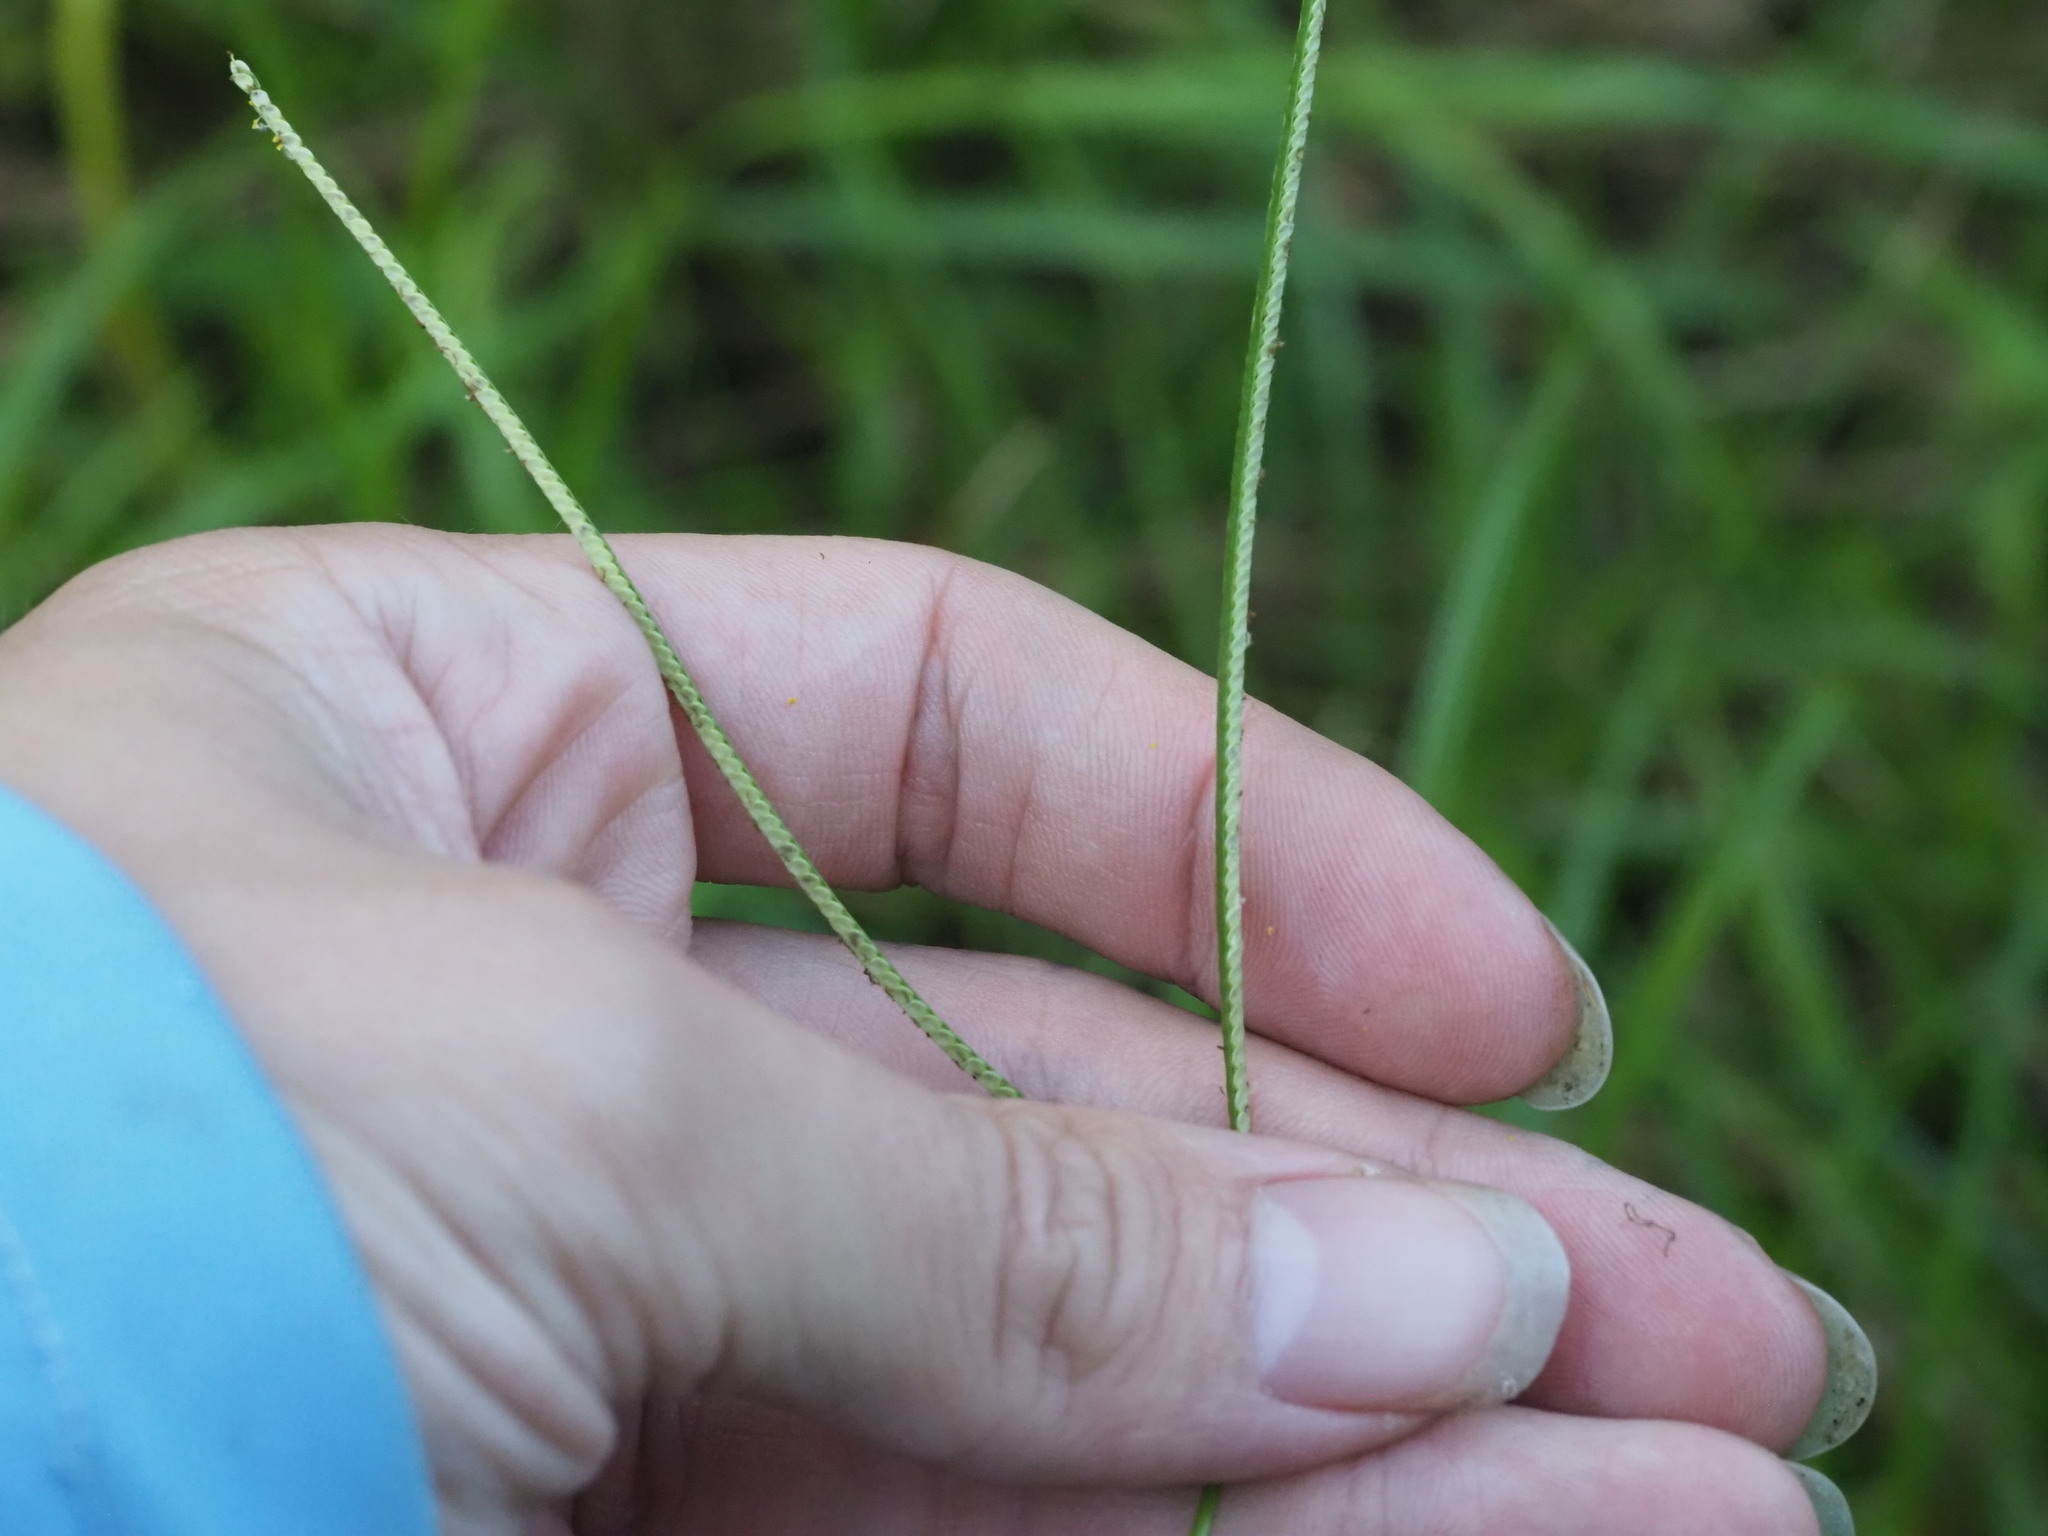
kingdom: Plantae
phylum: Tracheophyta
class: Liliopsida
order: Poales
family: Poaceae
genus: Paspalum
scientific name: Paspalum conjugatum
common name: Hilograss
